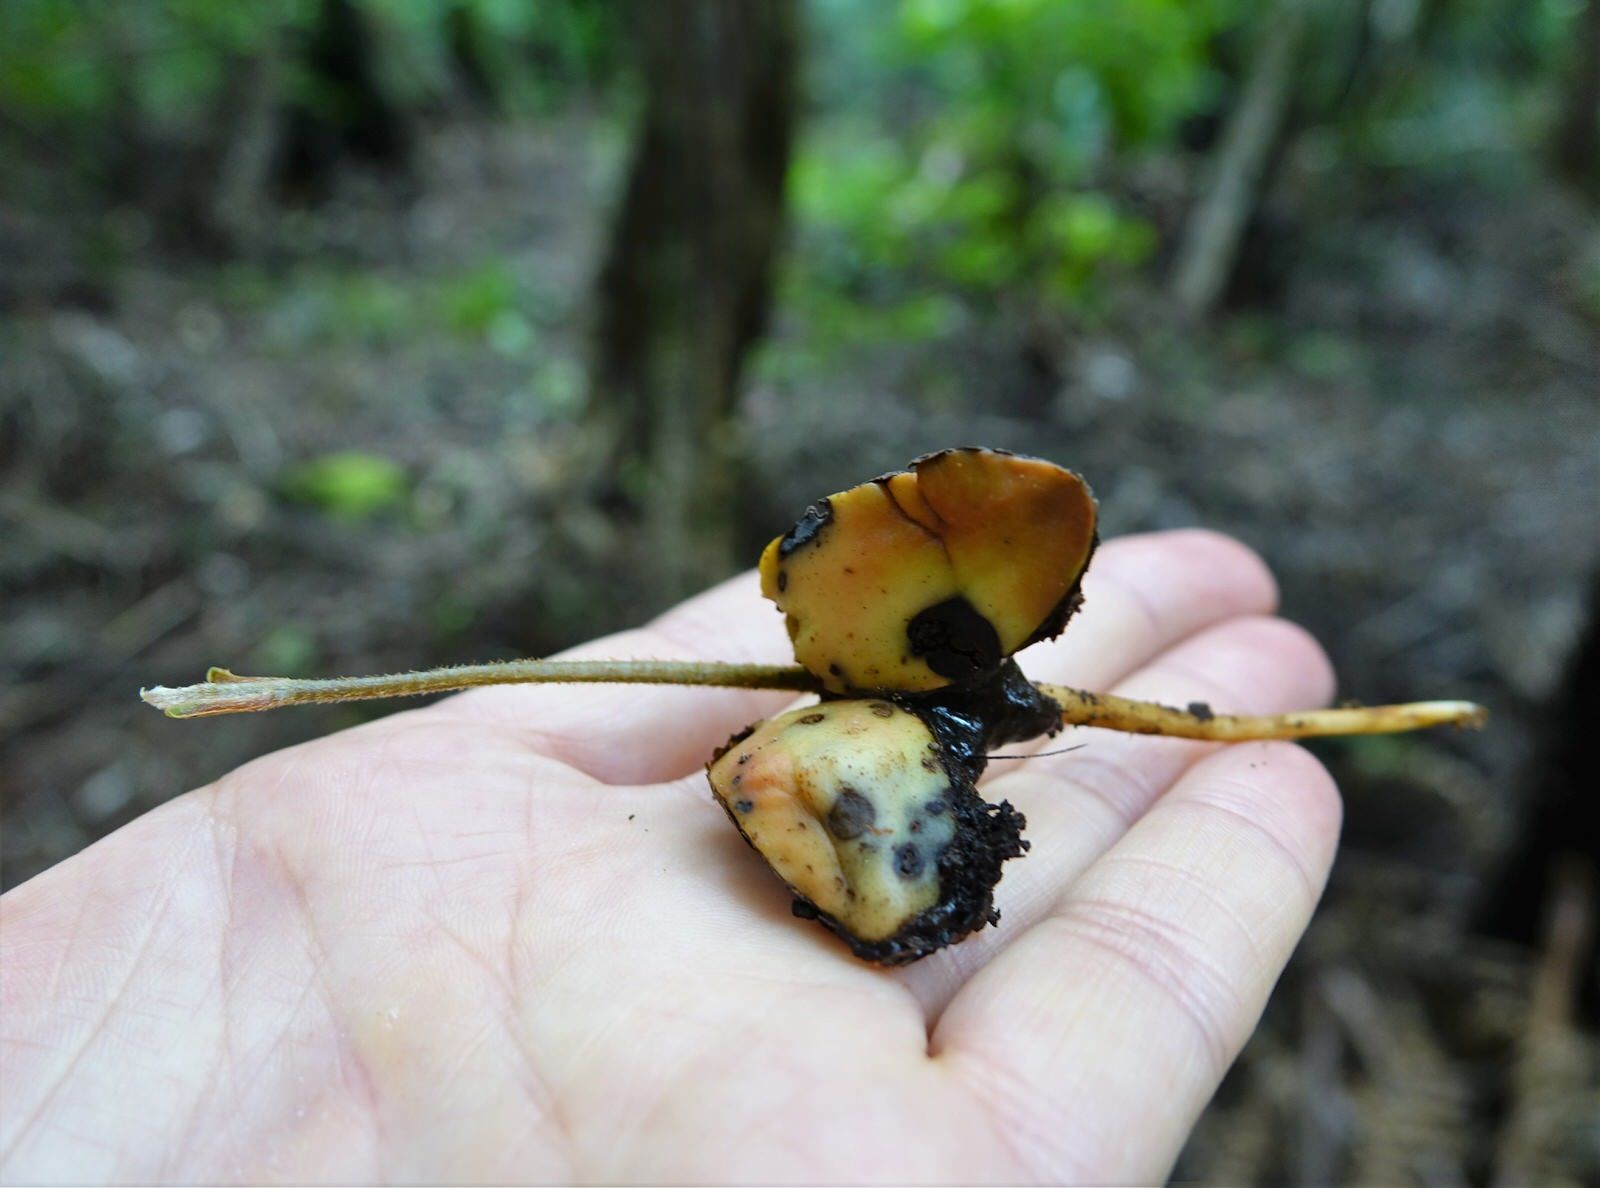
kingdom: Plantae
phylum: Tracheophyta
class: Magnoliopsida
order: Laurales
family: Lauraceae
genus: Beilschmiedia
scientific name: Beilschmiedia tarairi
